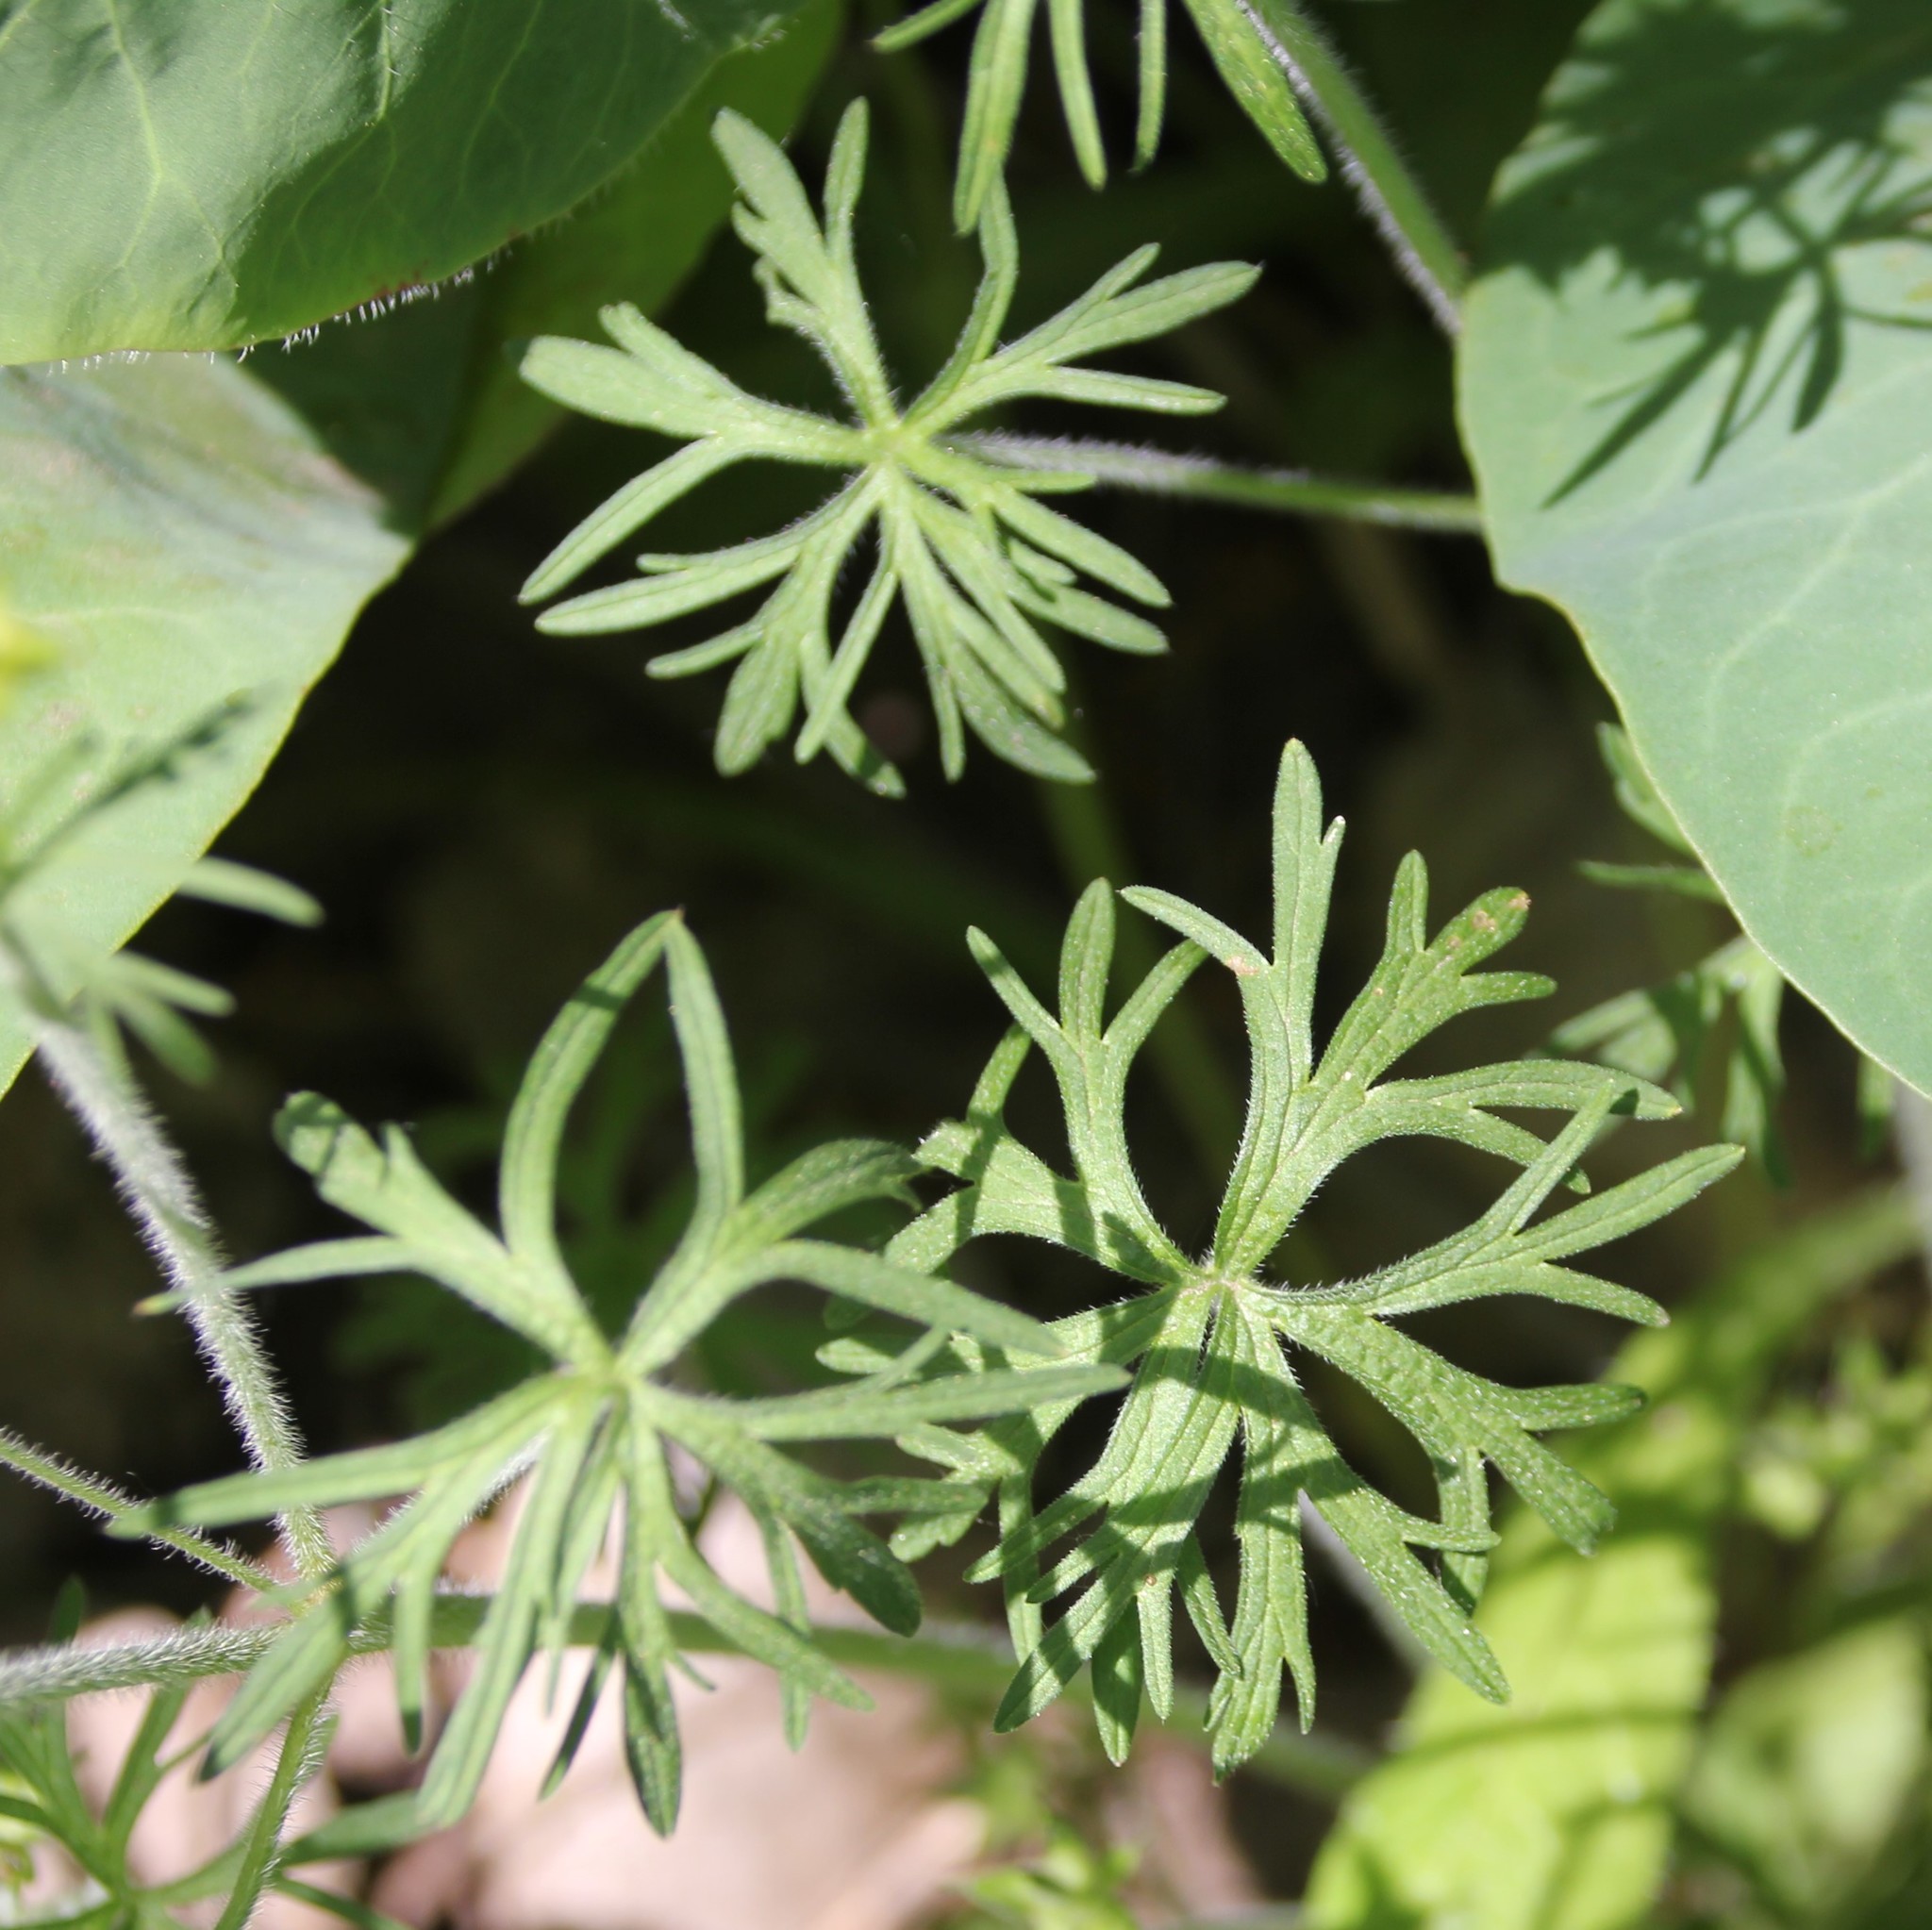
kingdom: Plantae
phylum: Tracheophyta
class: Magnoliopsida
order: Geraniales
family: Geraniaceae
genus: Geranium
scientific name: Geranium dissectum
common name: Cut-leaved crane's-bill
